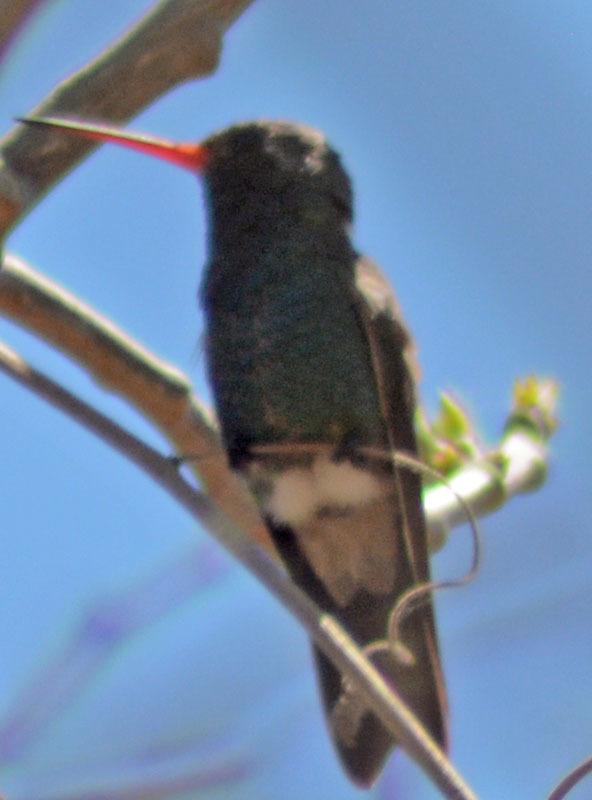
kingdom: Animalia
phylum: Chordata
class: Aves
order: Apodiformes
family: Trochilidae
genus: Cynanthus
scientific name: Cynanthus latirostris
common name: Broad-billed hummingbird
